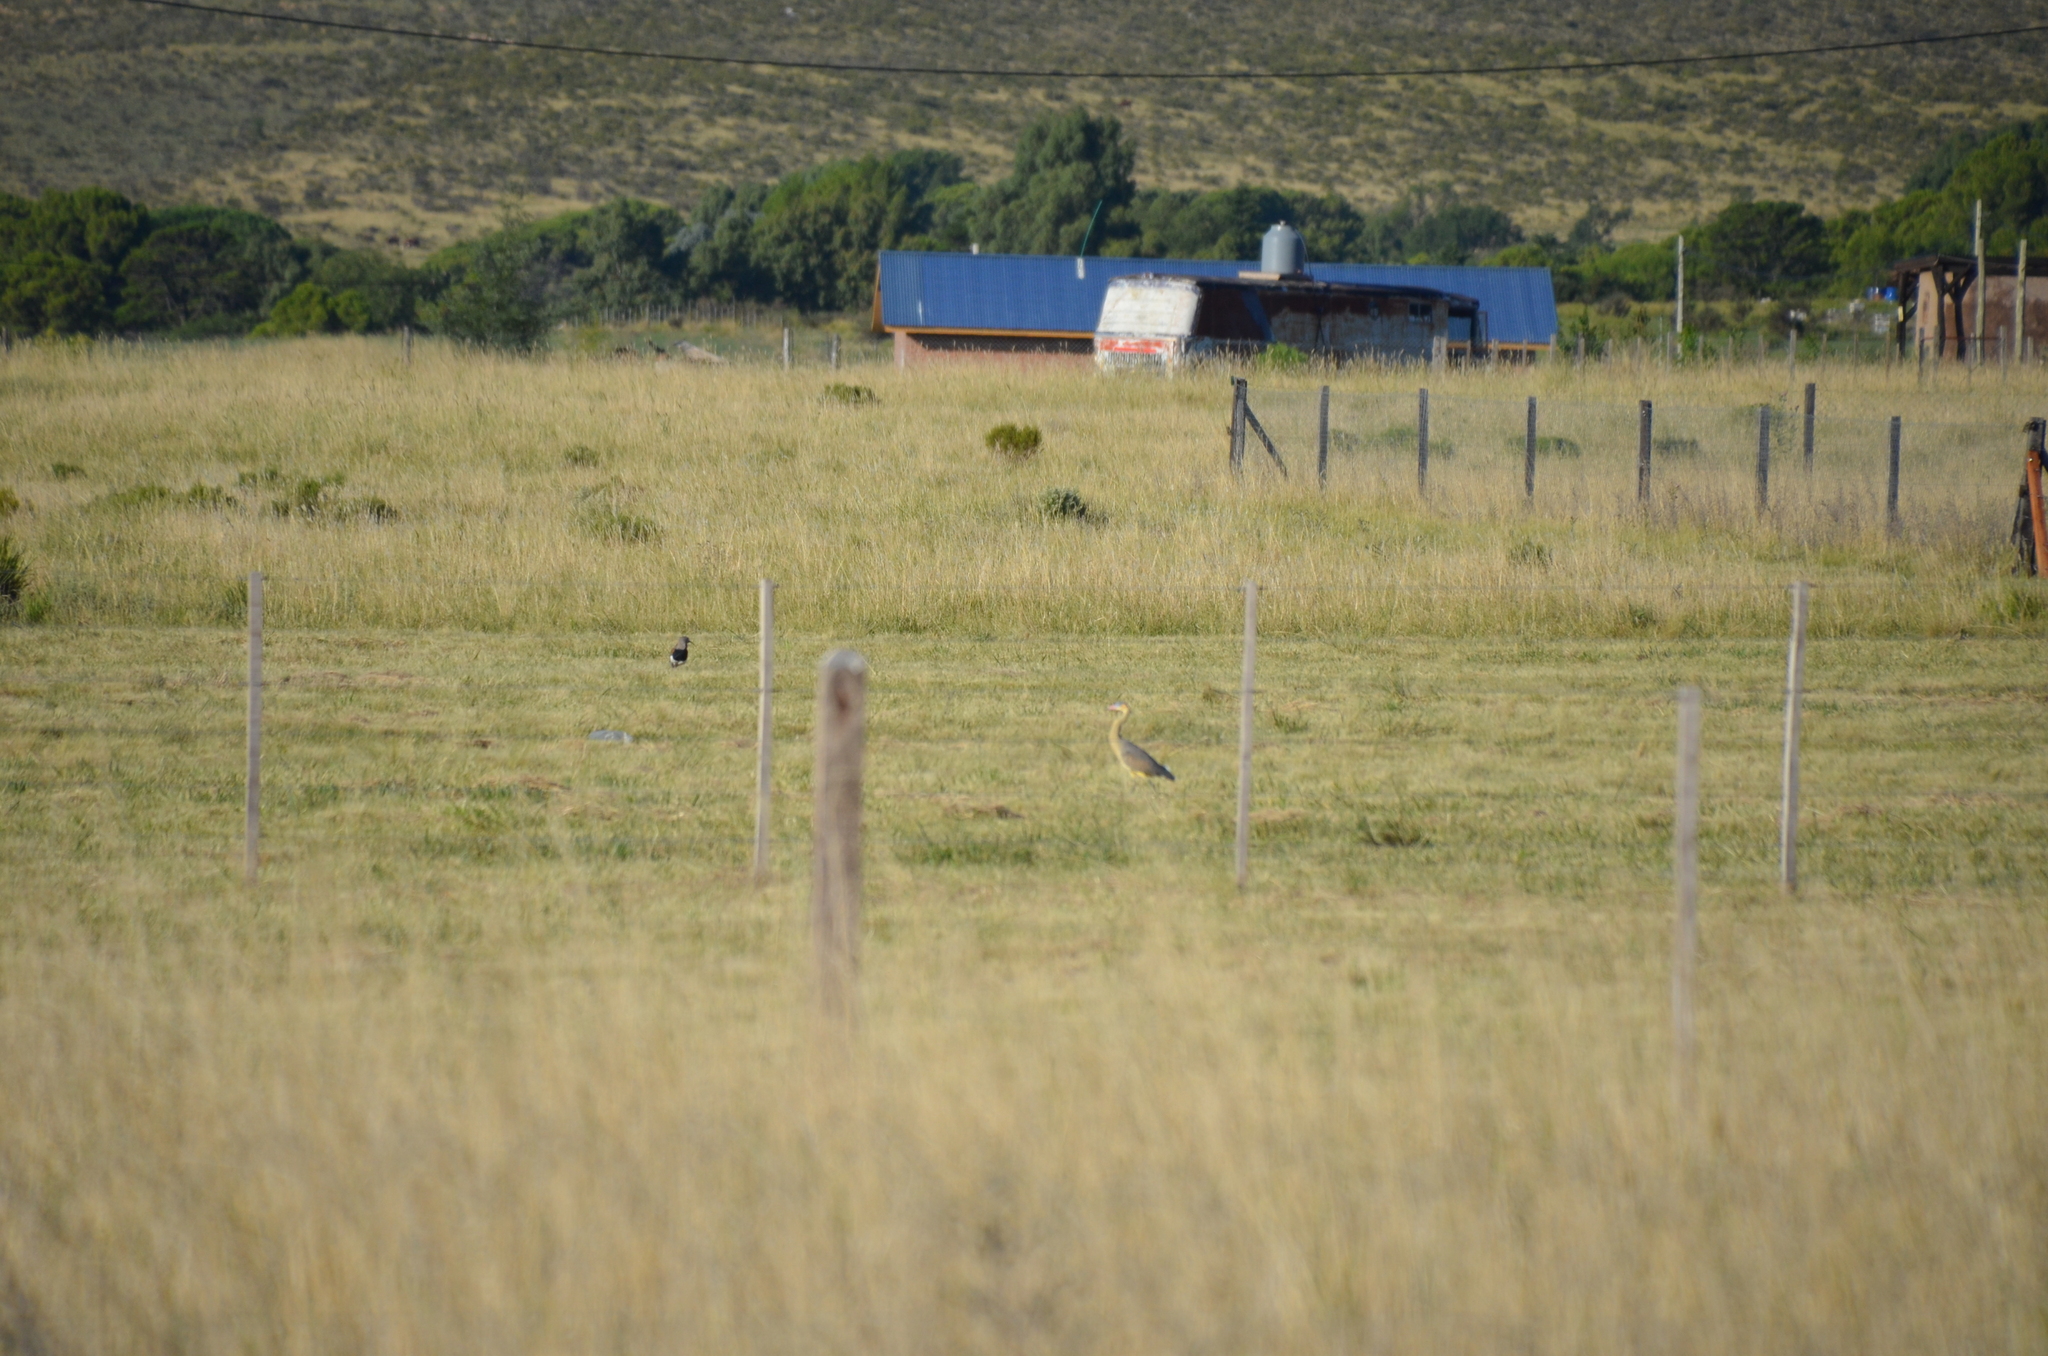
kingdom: Animalia
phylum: Chordata
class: Aves
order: Pelecaniformes
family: Ardeidae
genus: Syrigma
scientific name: Syrigma sibilatrix
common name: Whistling heron
